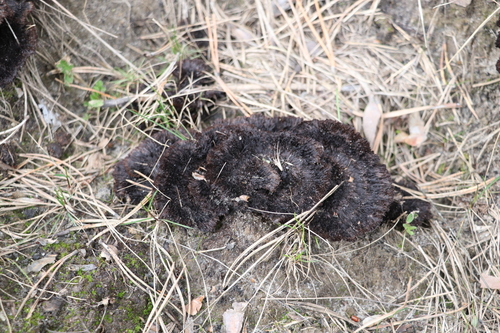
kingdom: Fungi
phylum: Basidiomycota
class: Agaricomycetes
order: Thelephorales
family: Thelephoraceae
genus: Thelephora
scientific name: Thelephora terrestris
